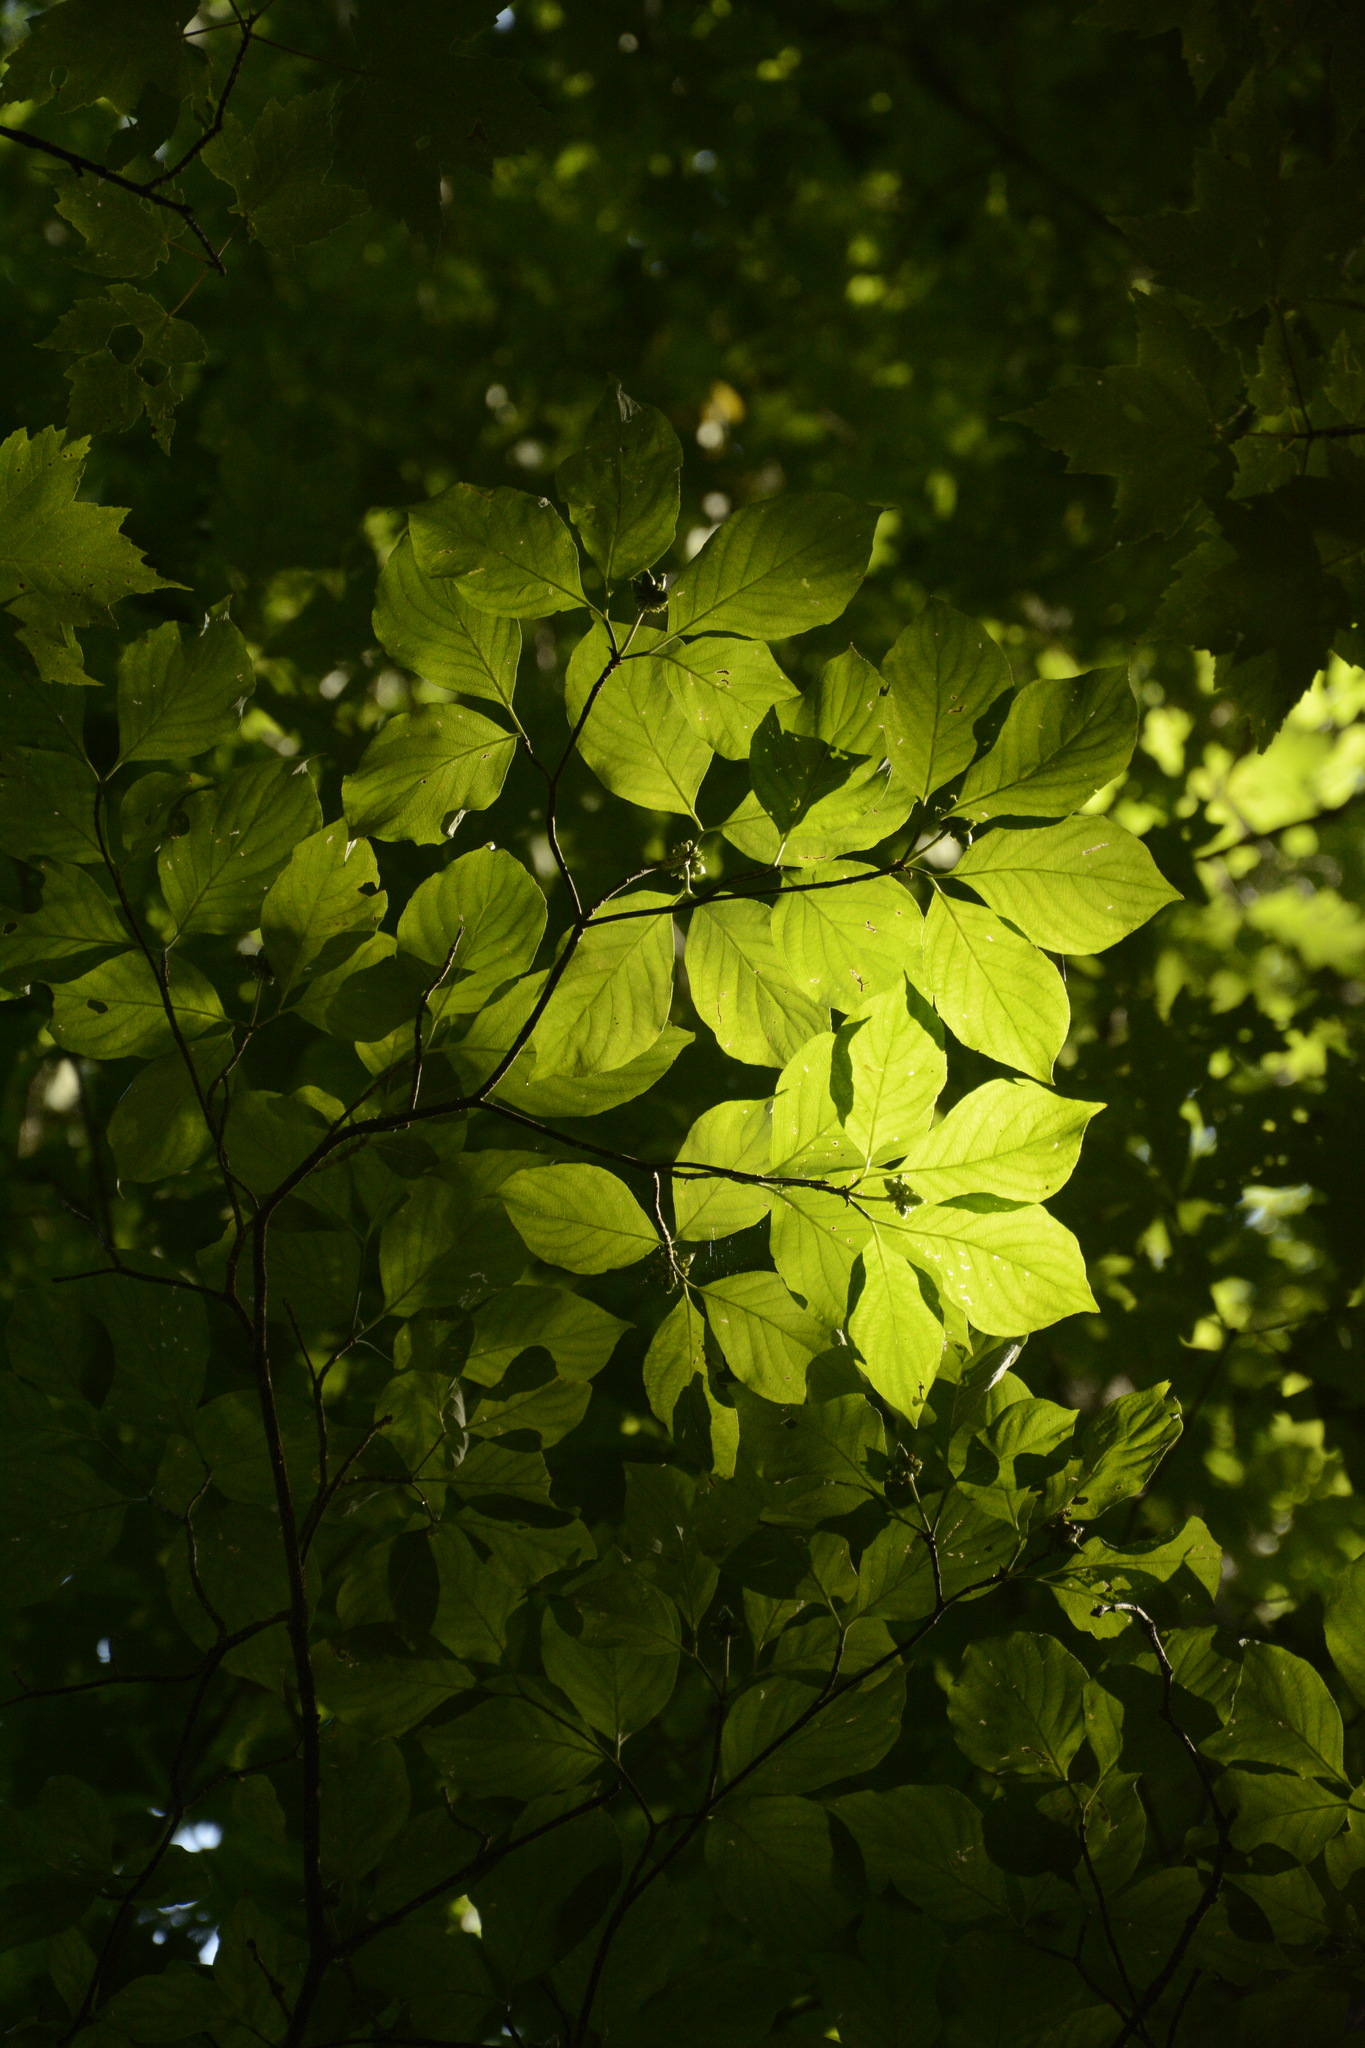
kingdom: Plantae
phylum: Tracheophyta
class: Magnoliopsida
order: Cornales
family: Cornaceae
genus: Cornus
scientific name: Cornus florida
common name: Flowering dogwood
